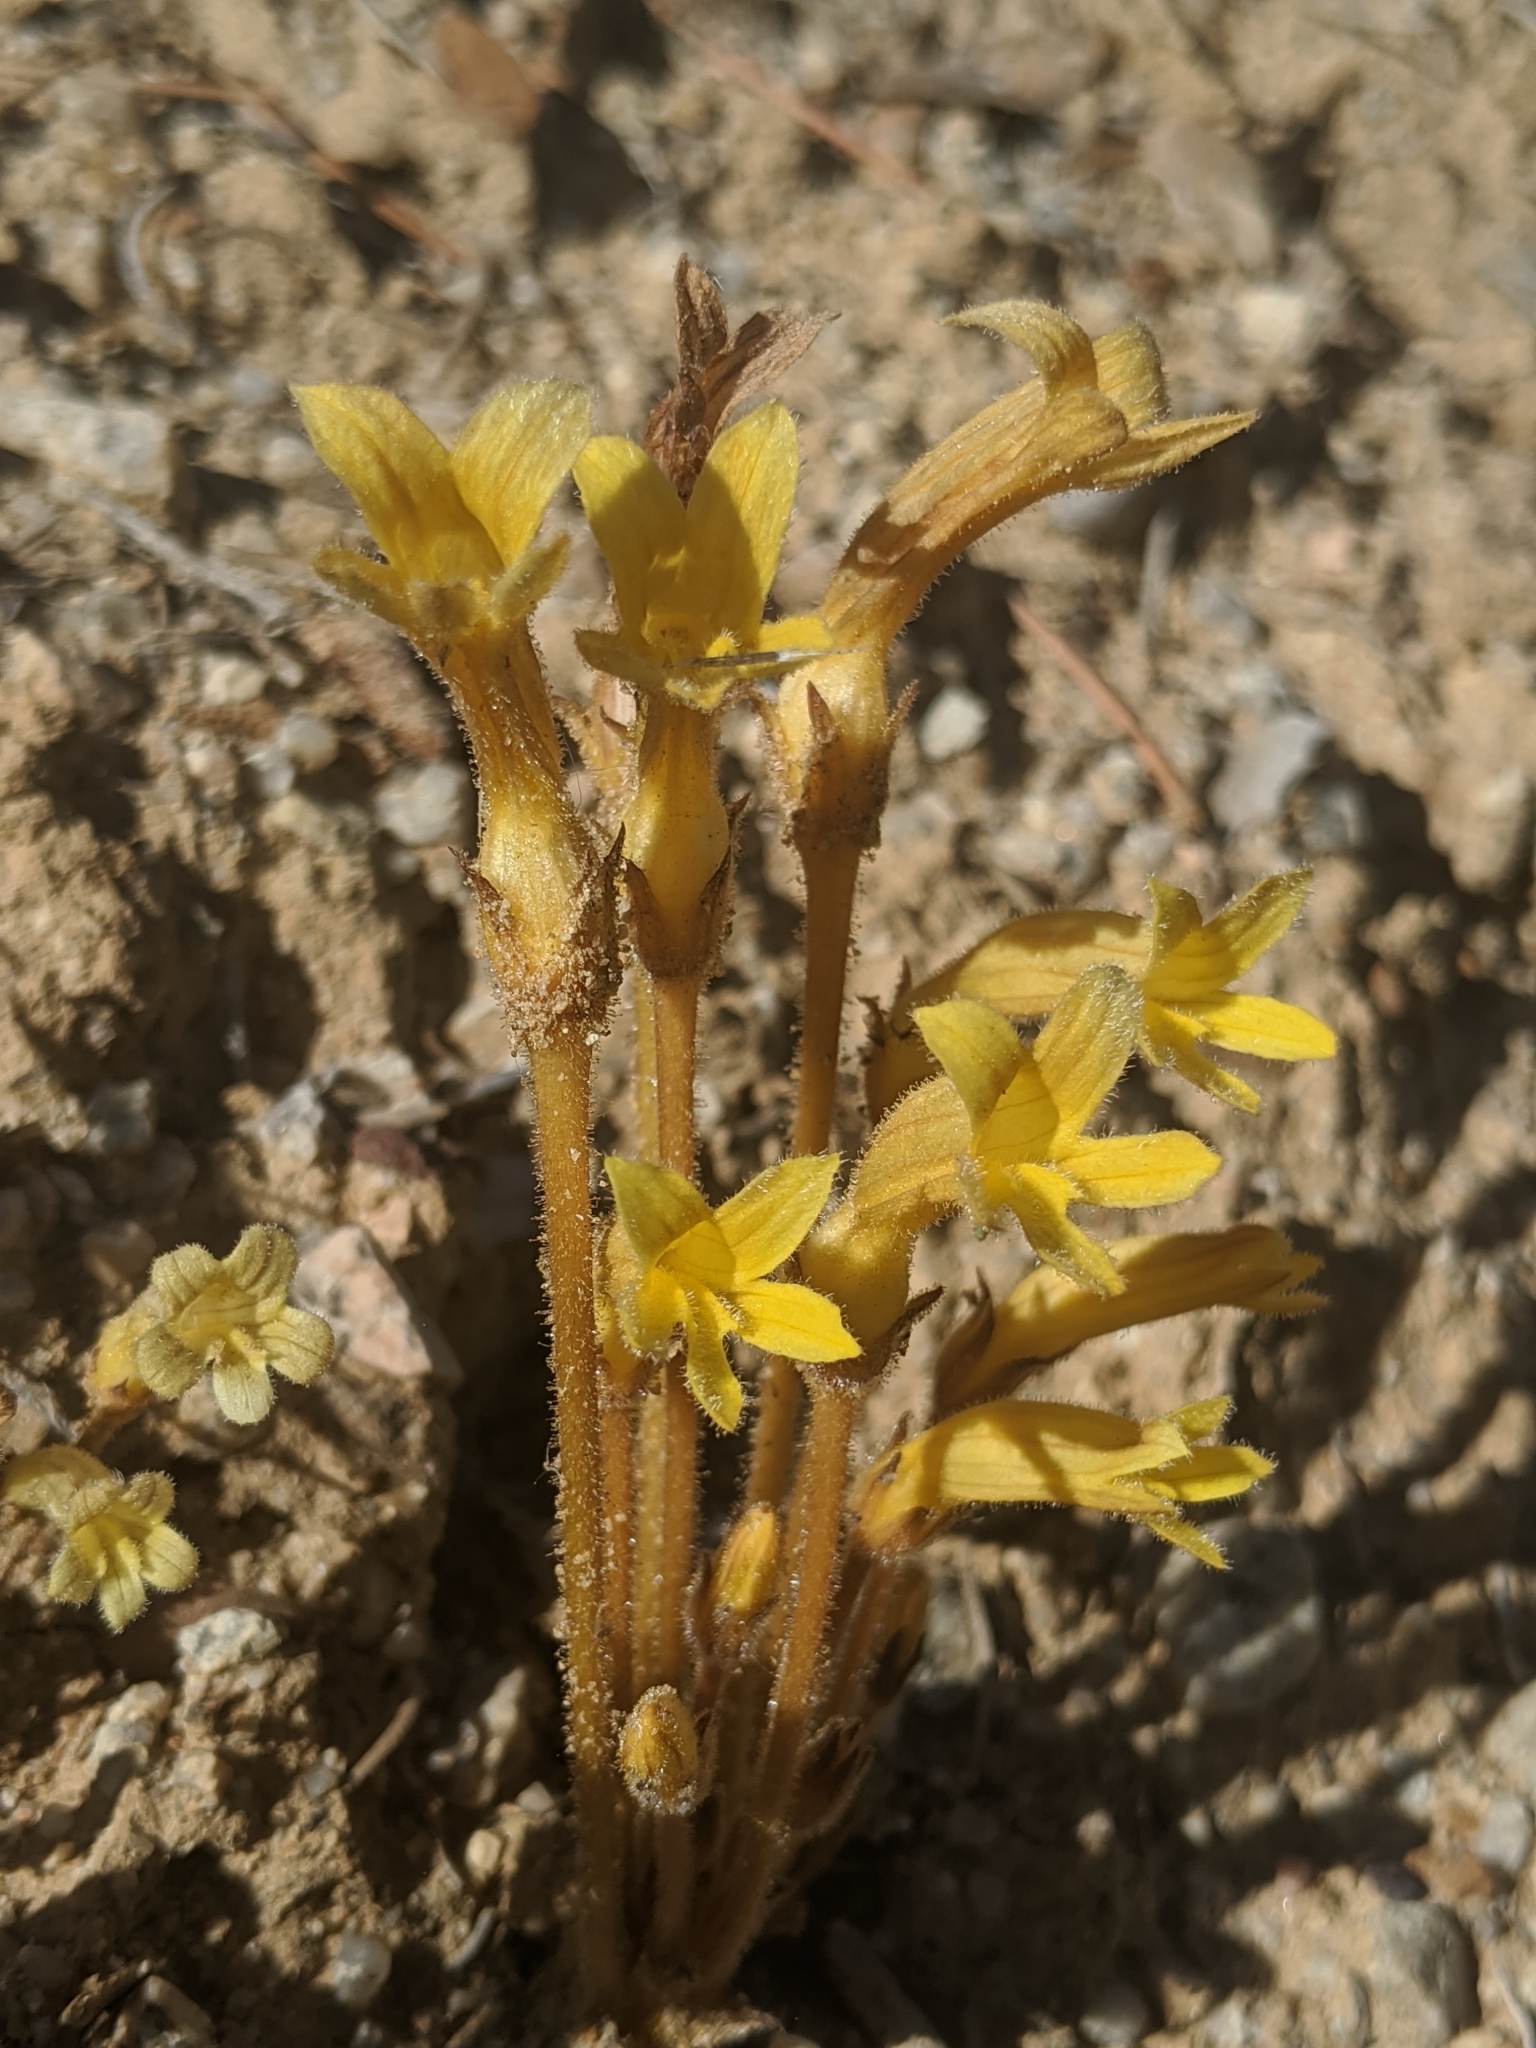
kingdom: Plantae
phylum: Tracheophyta
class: Magnoliopsida
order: Lamiales
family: Orobanchaceae
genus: Aphyllon
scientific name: Aphyllon franciscanum
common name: San francisco broomrape
